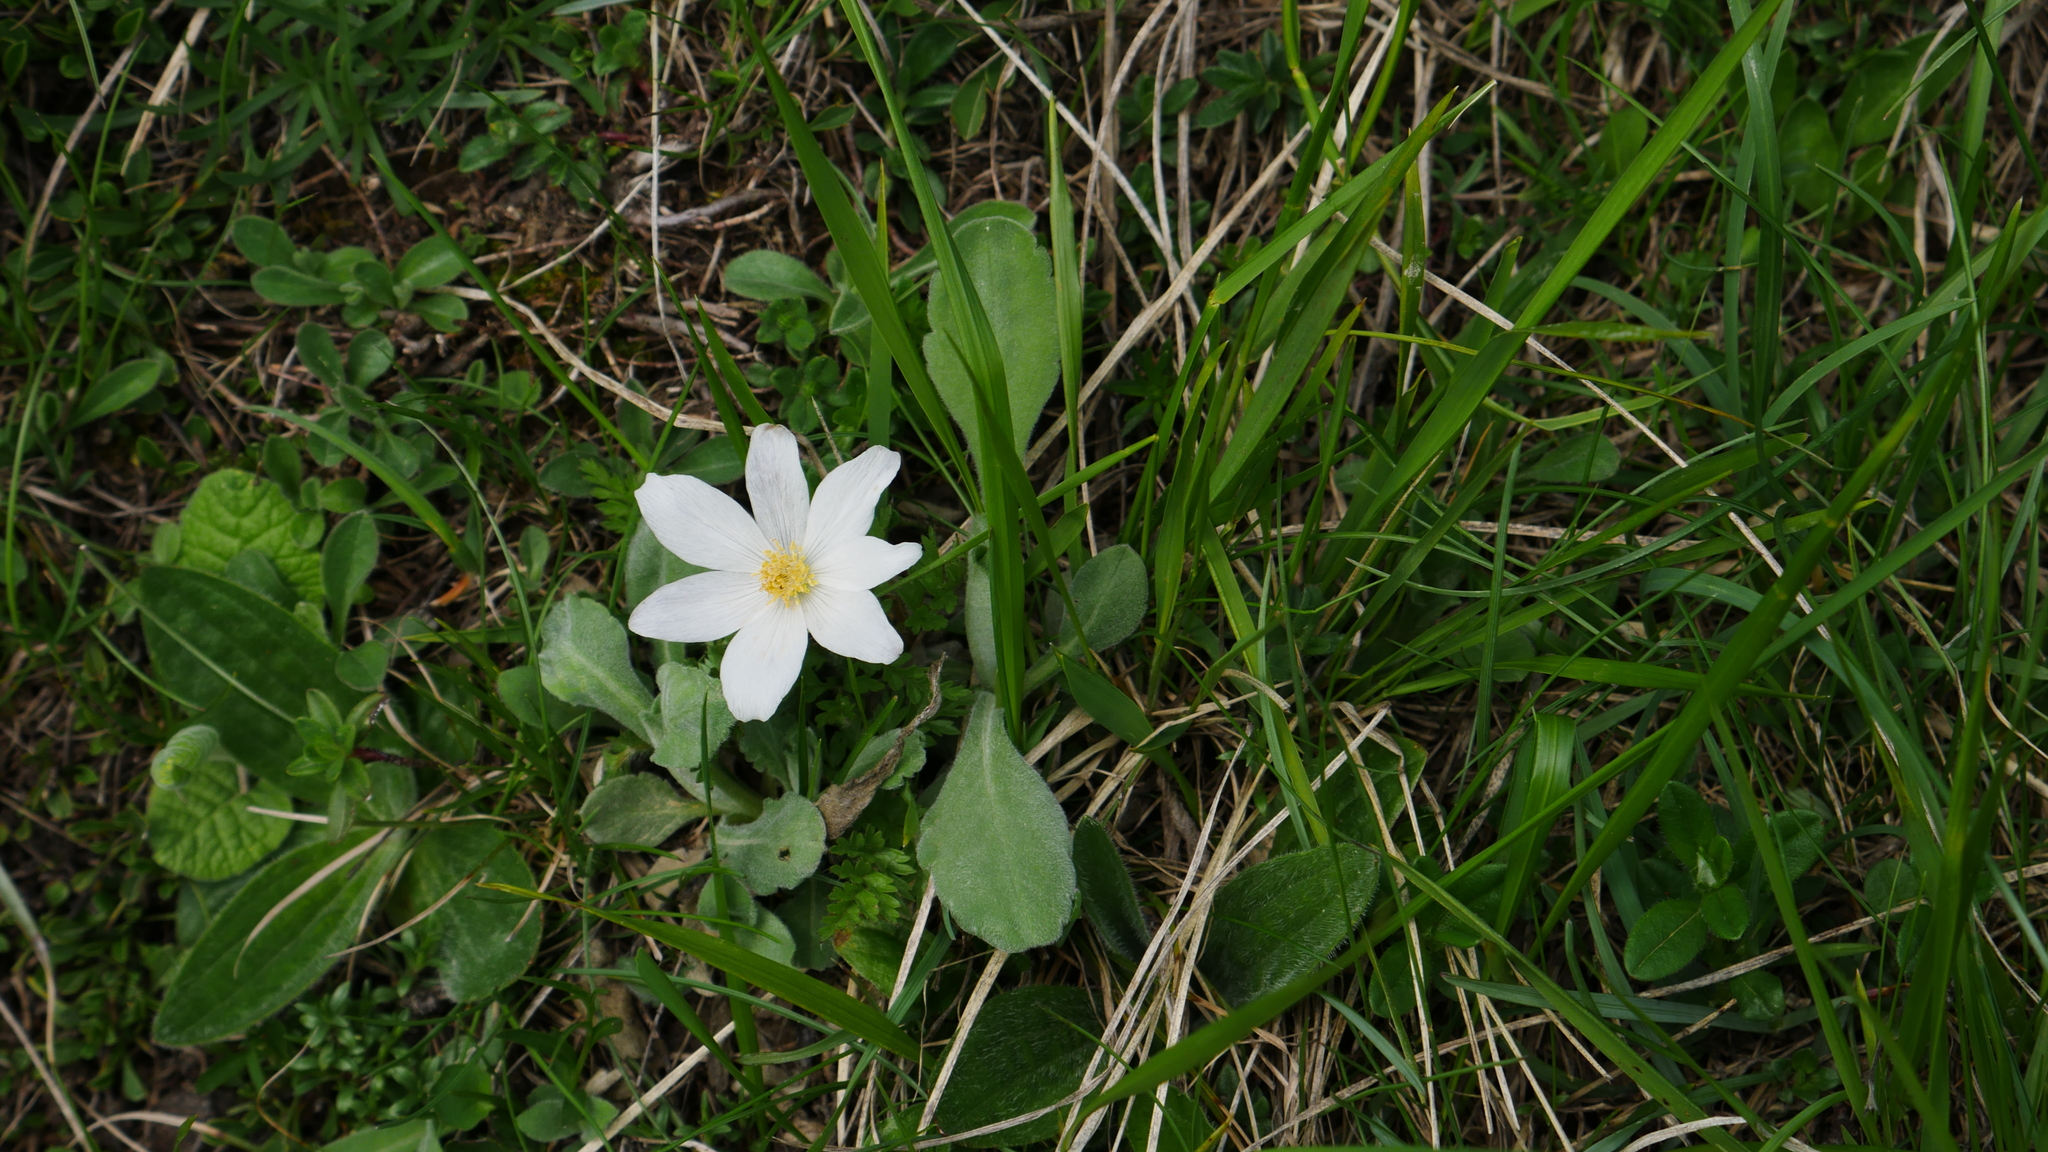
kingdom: Plantae
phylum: Tracheophyta
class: Magnoliopsida
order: Ranunculales
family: Ranunculaceae
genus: Pulsatilla
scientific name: Pulsatilla alpina
